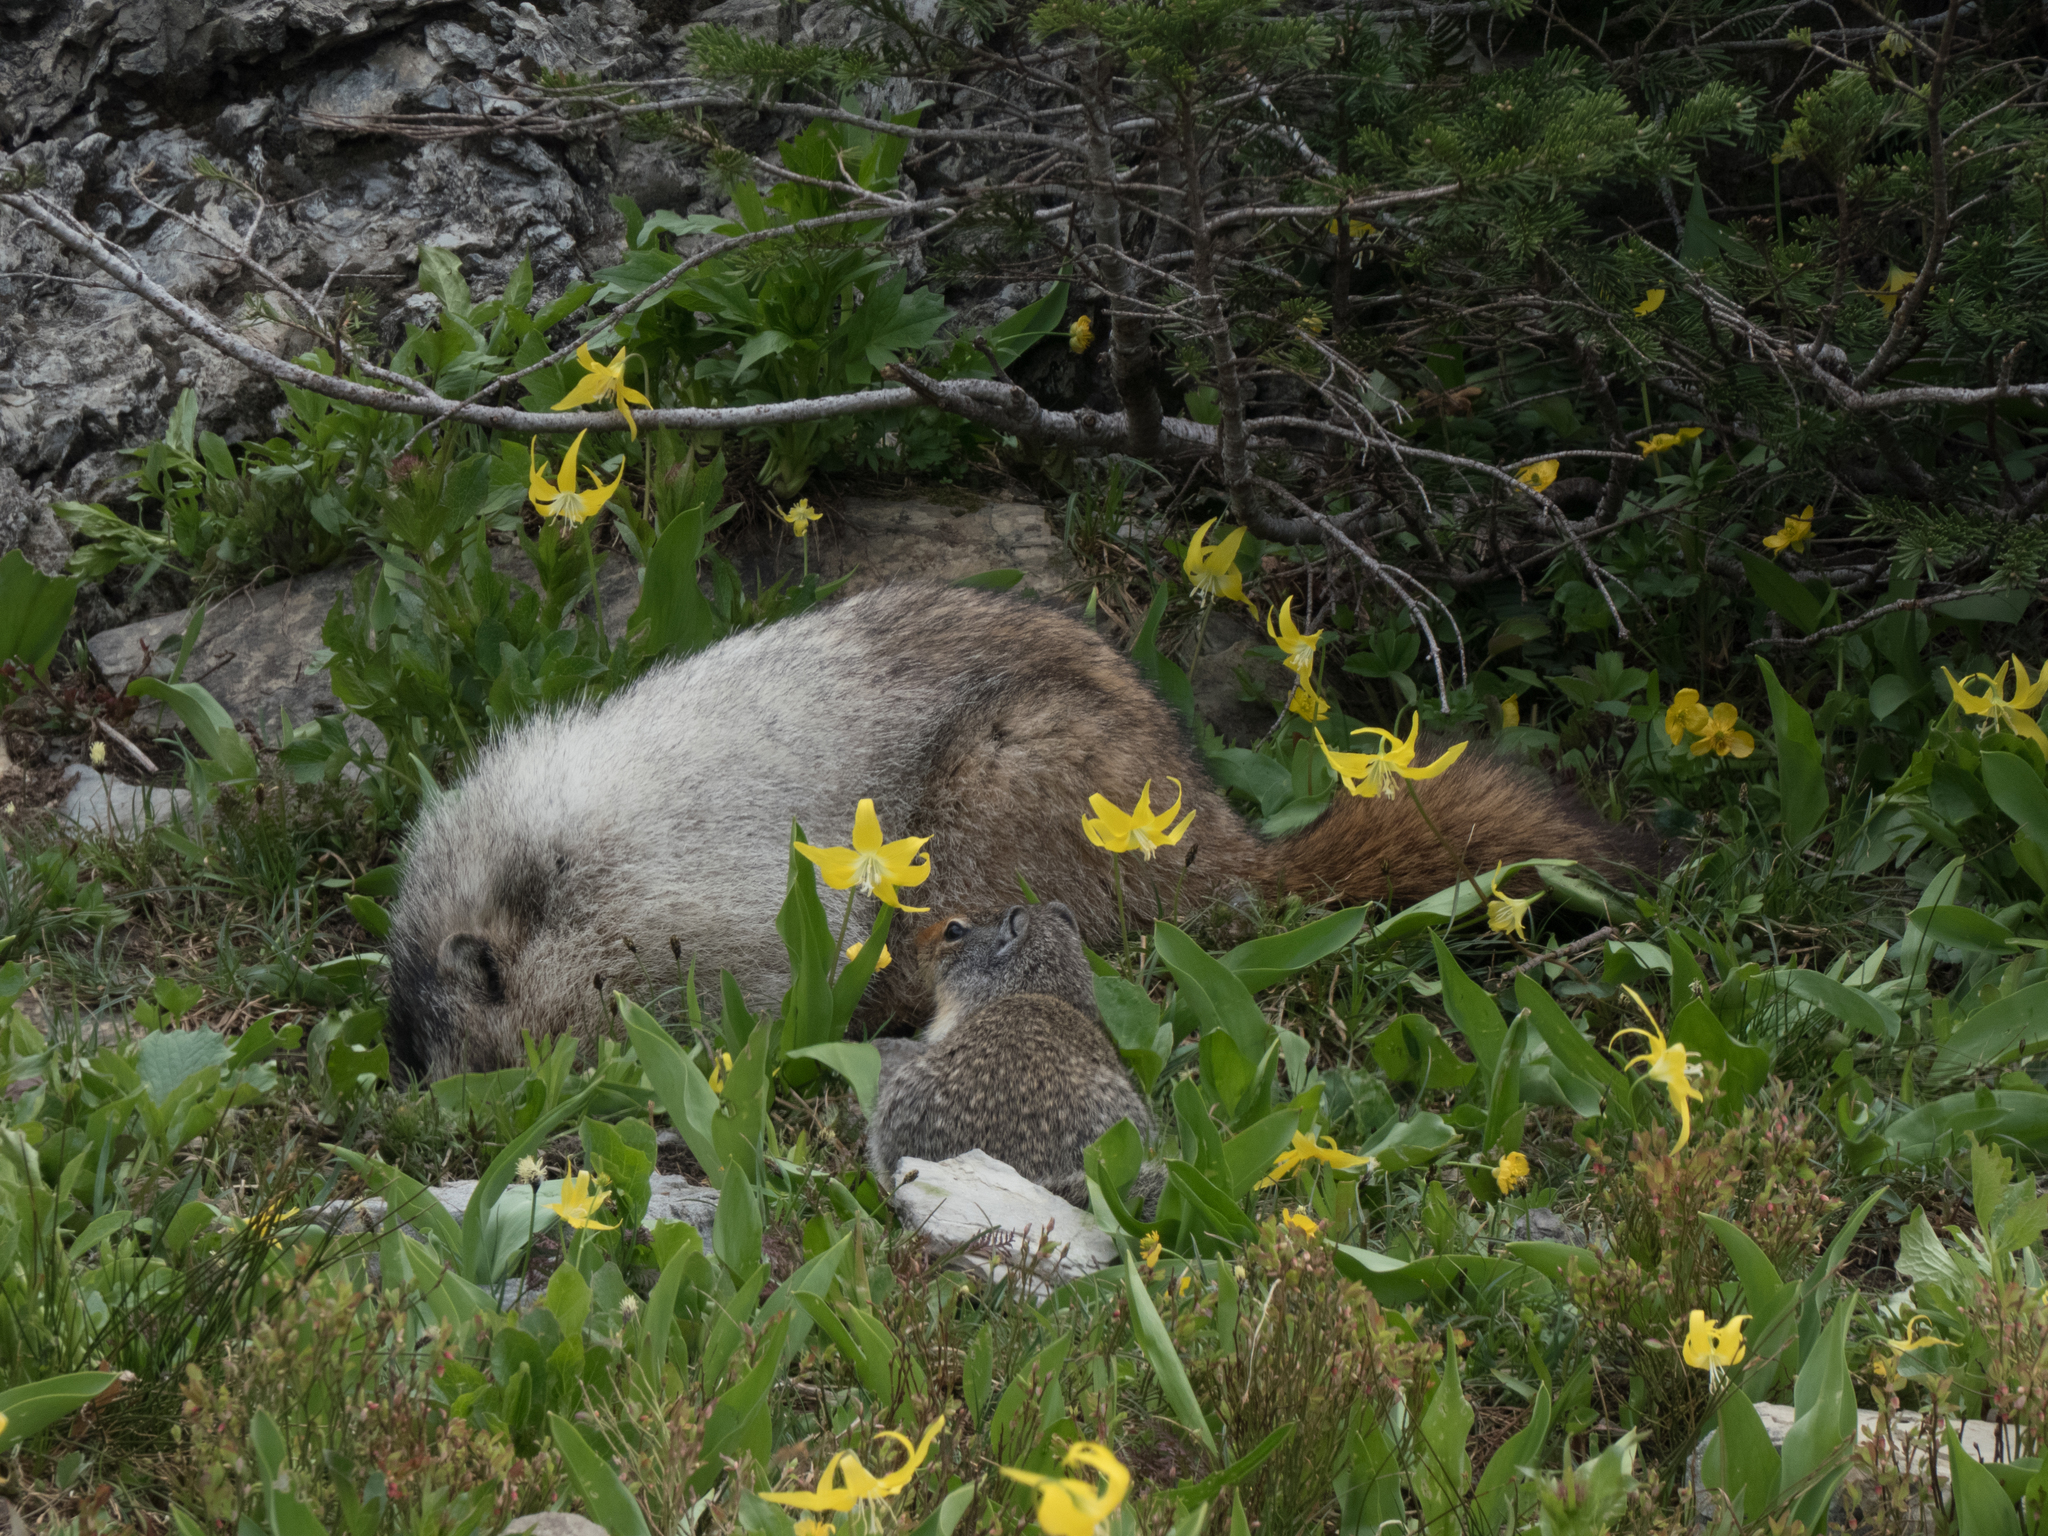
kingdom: Animalia
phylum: Chordata
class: Mammalia
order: Rodentia
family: Sciuridae
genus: Urocitellus
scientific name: Urocitellus columbianus
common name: Columbian ground squirrel
